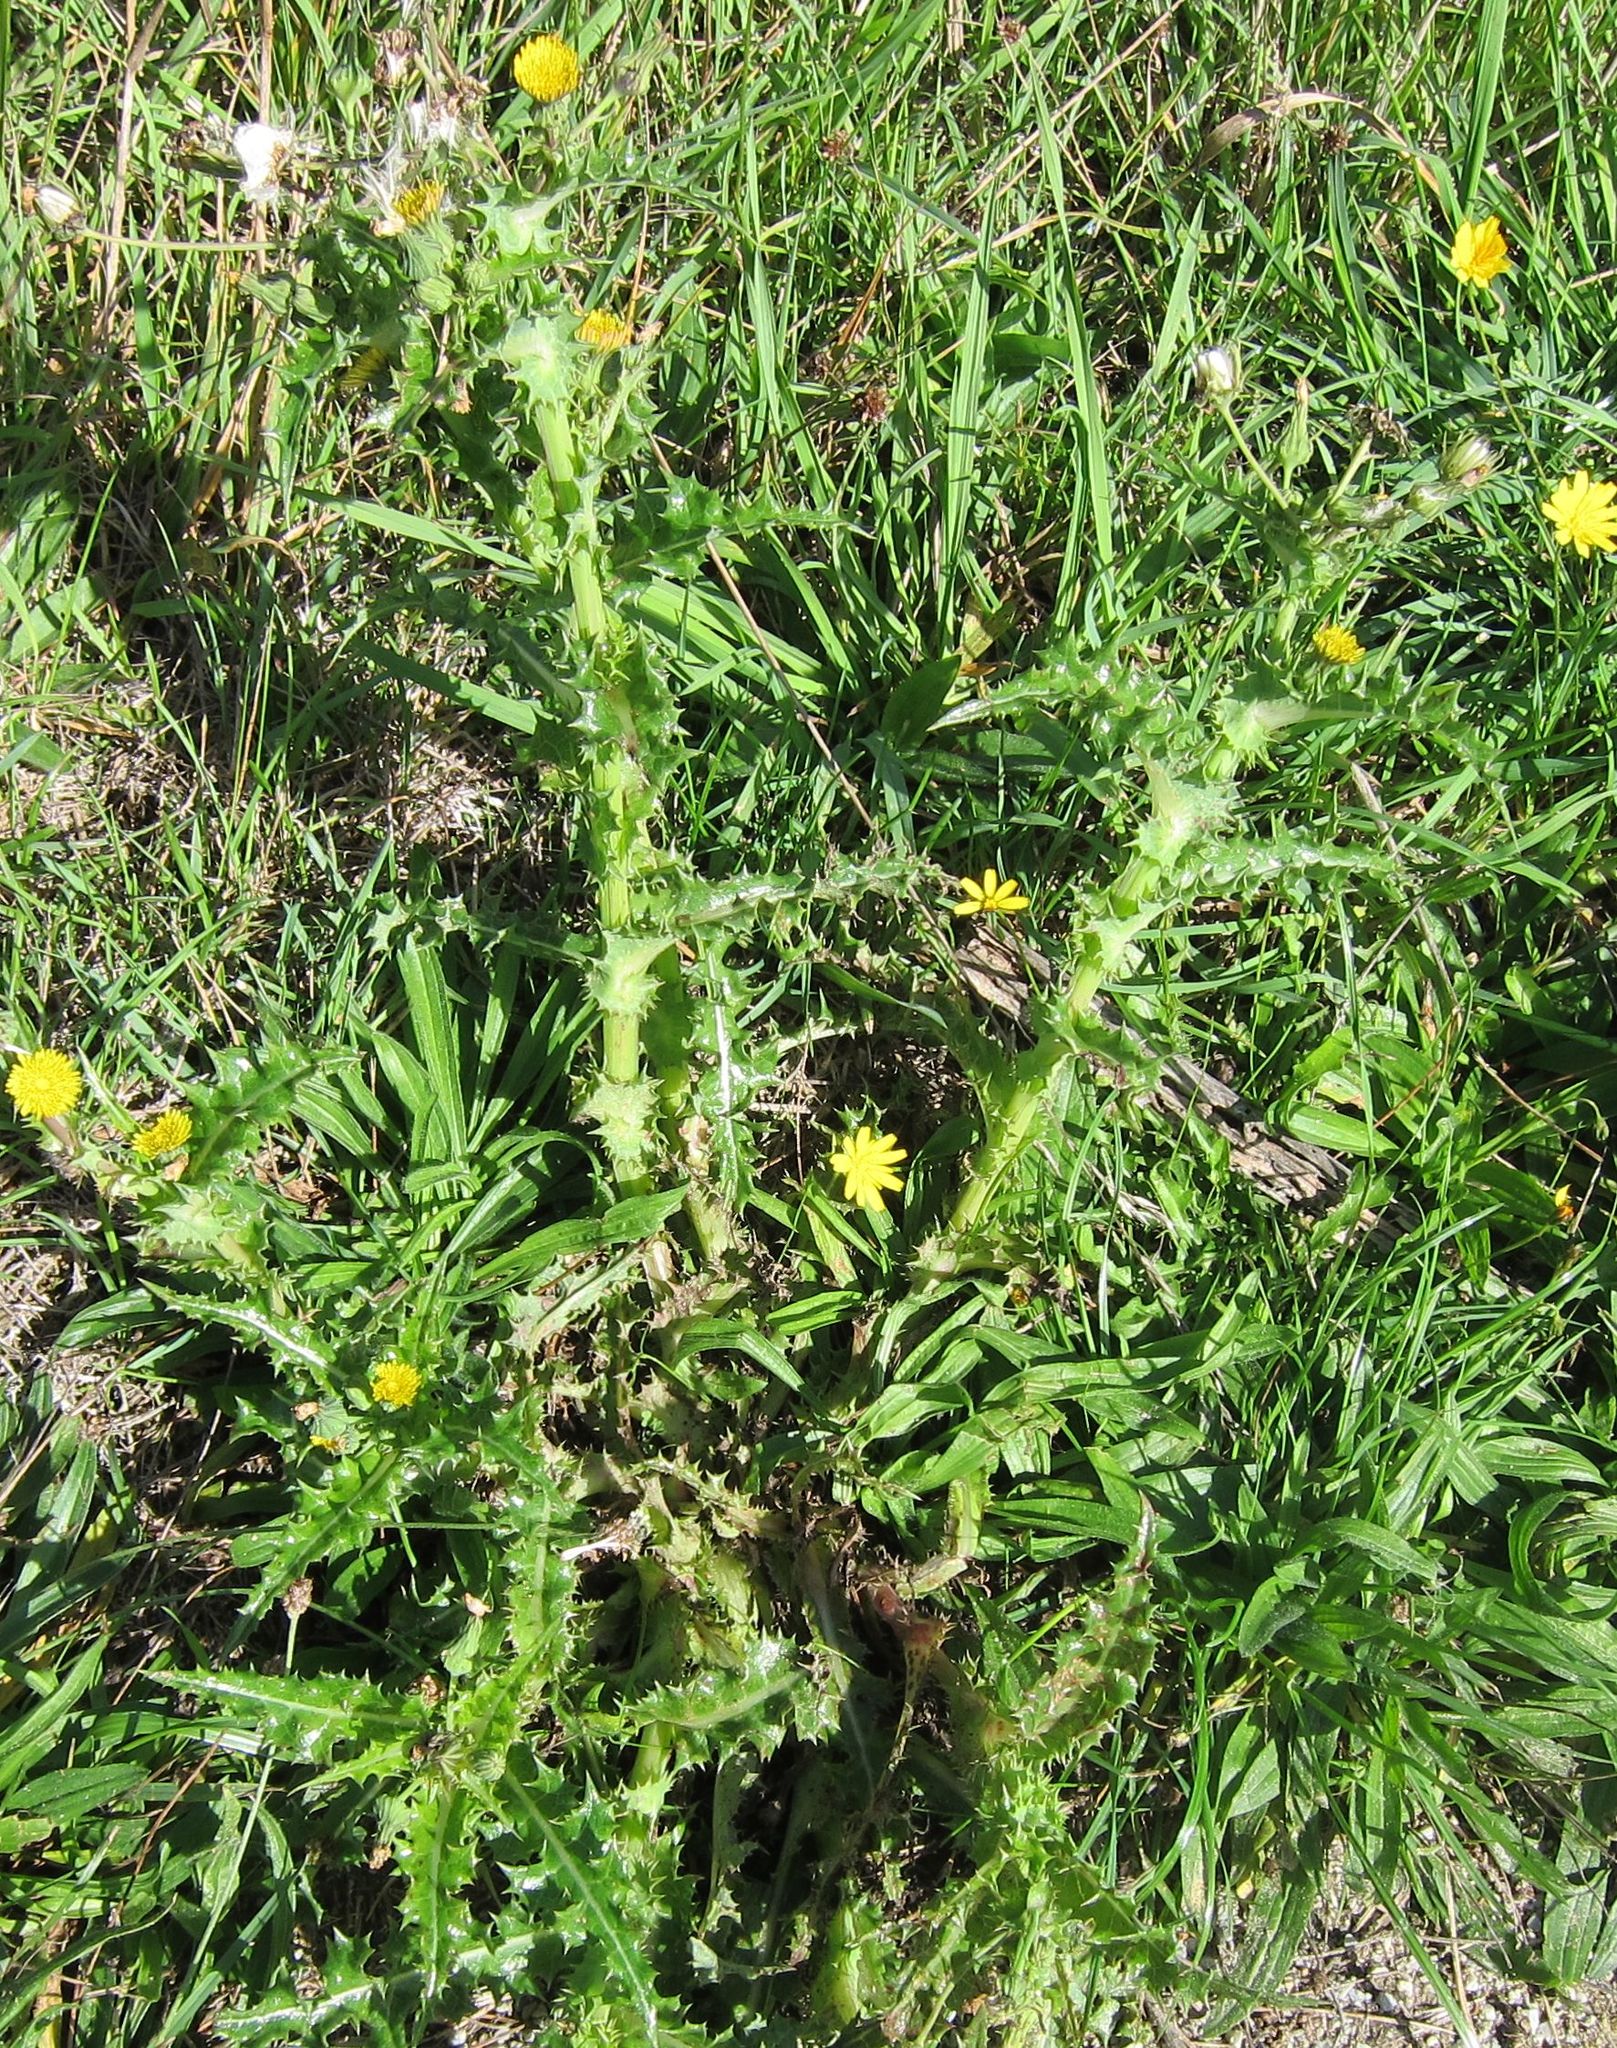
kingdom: Plantae
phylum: Tracheophyta
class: Magnoliopsida
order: Asterales
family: Asteraceae
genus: Sonchus
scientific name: Sonchus asper
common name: Prickly sow-thistle
